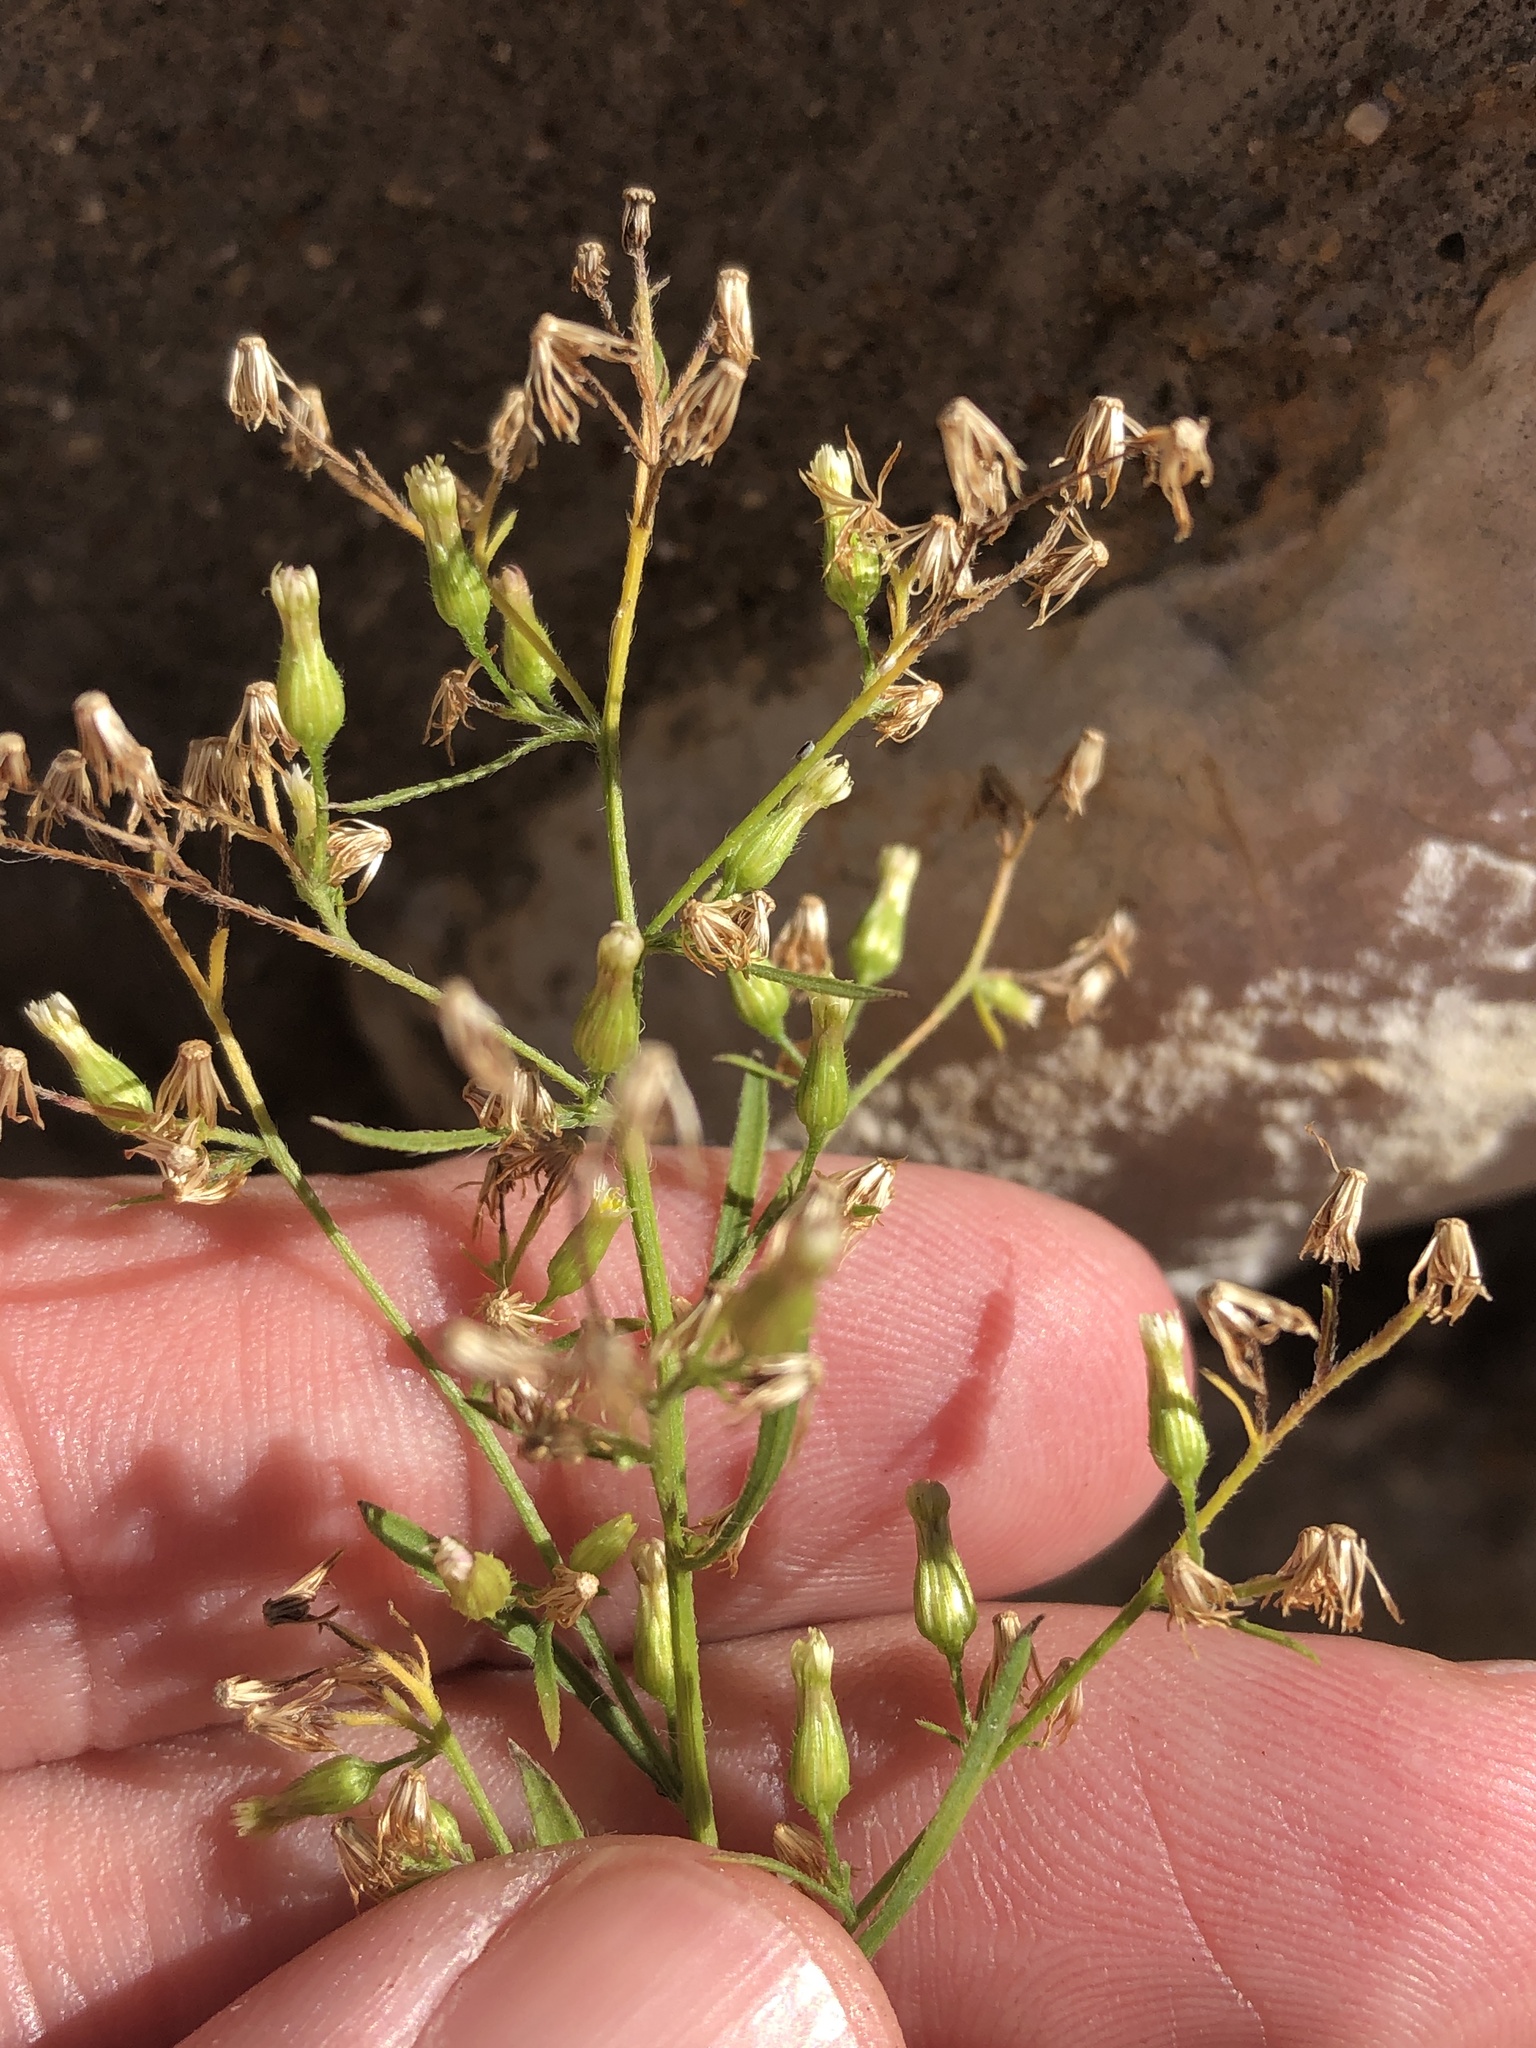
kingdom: Plantae
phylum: Tracheophyta
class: Magnoliopsida
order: Asterales
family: Asteraceae
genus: Erigeron
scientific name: Erigeron canadensis
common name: Canadian fleabane
